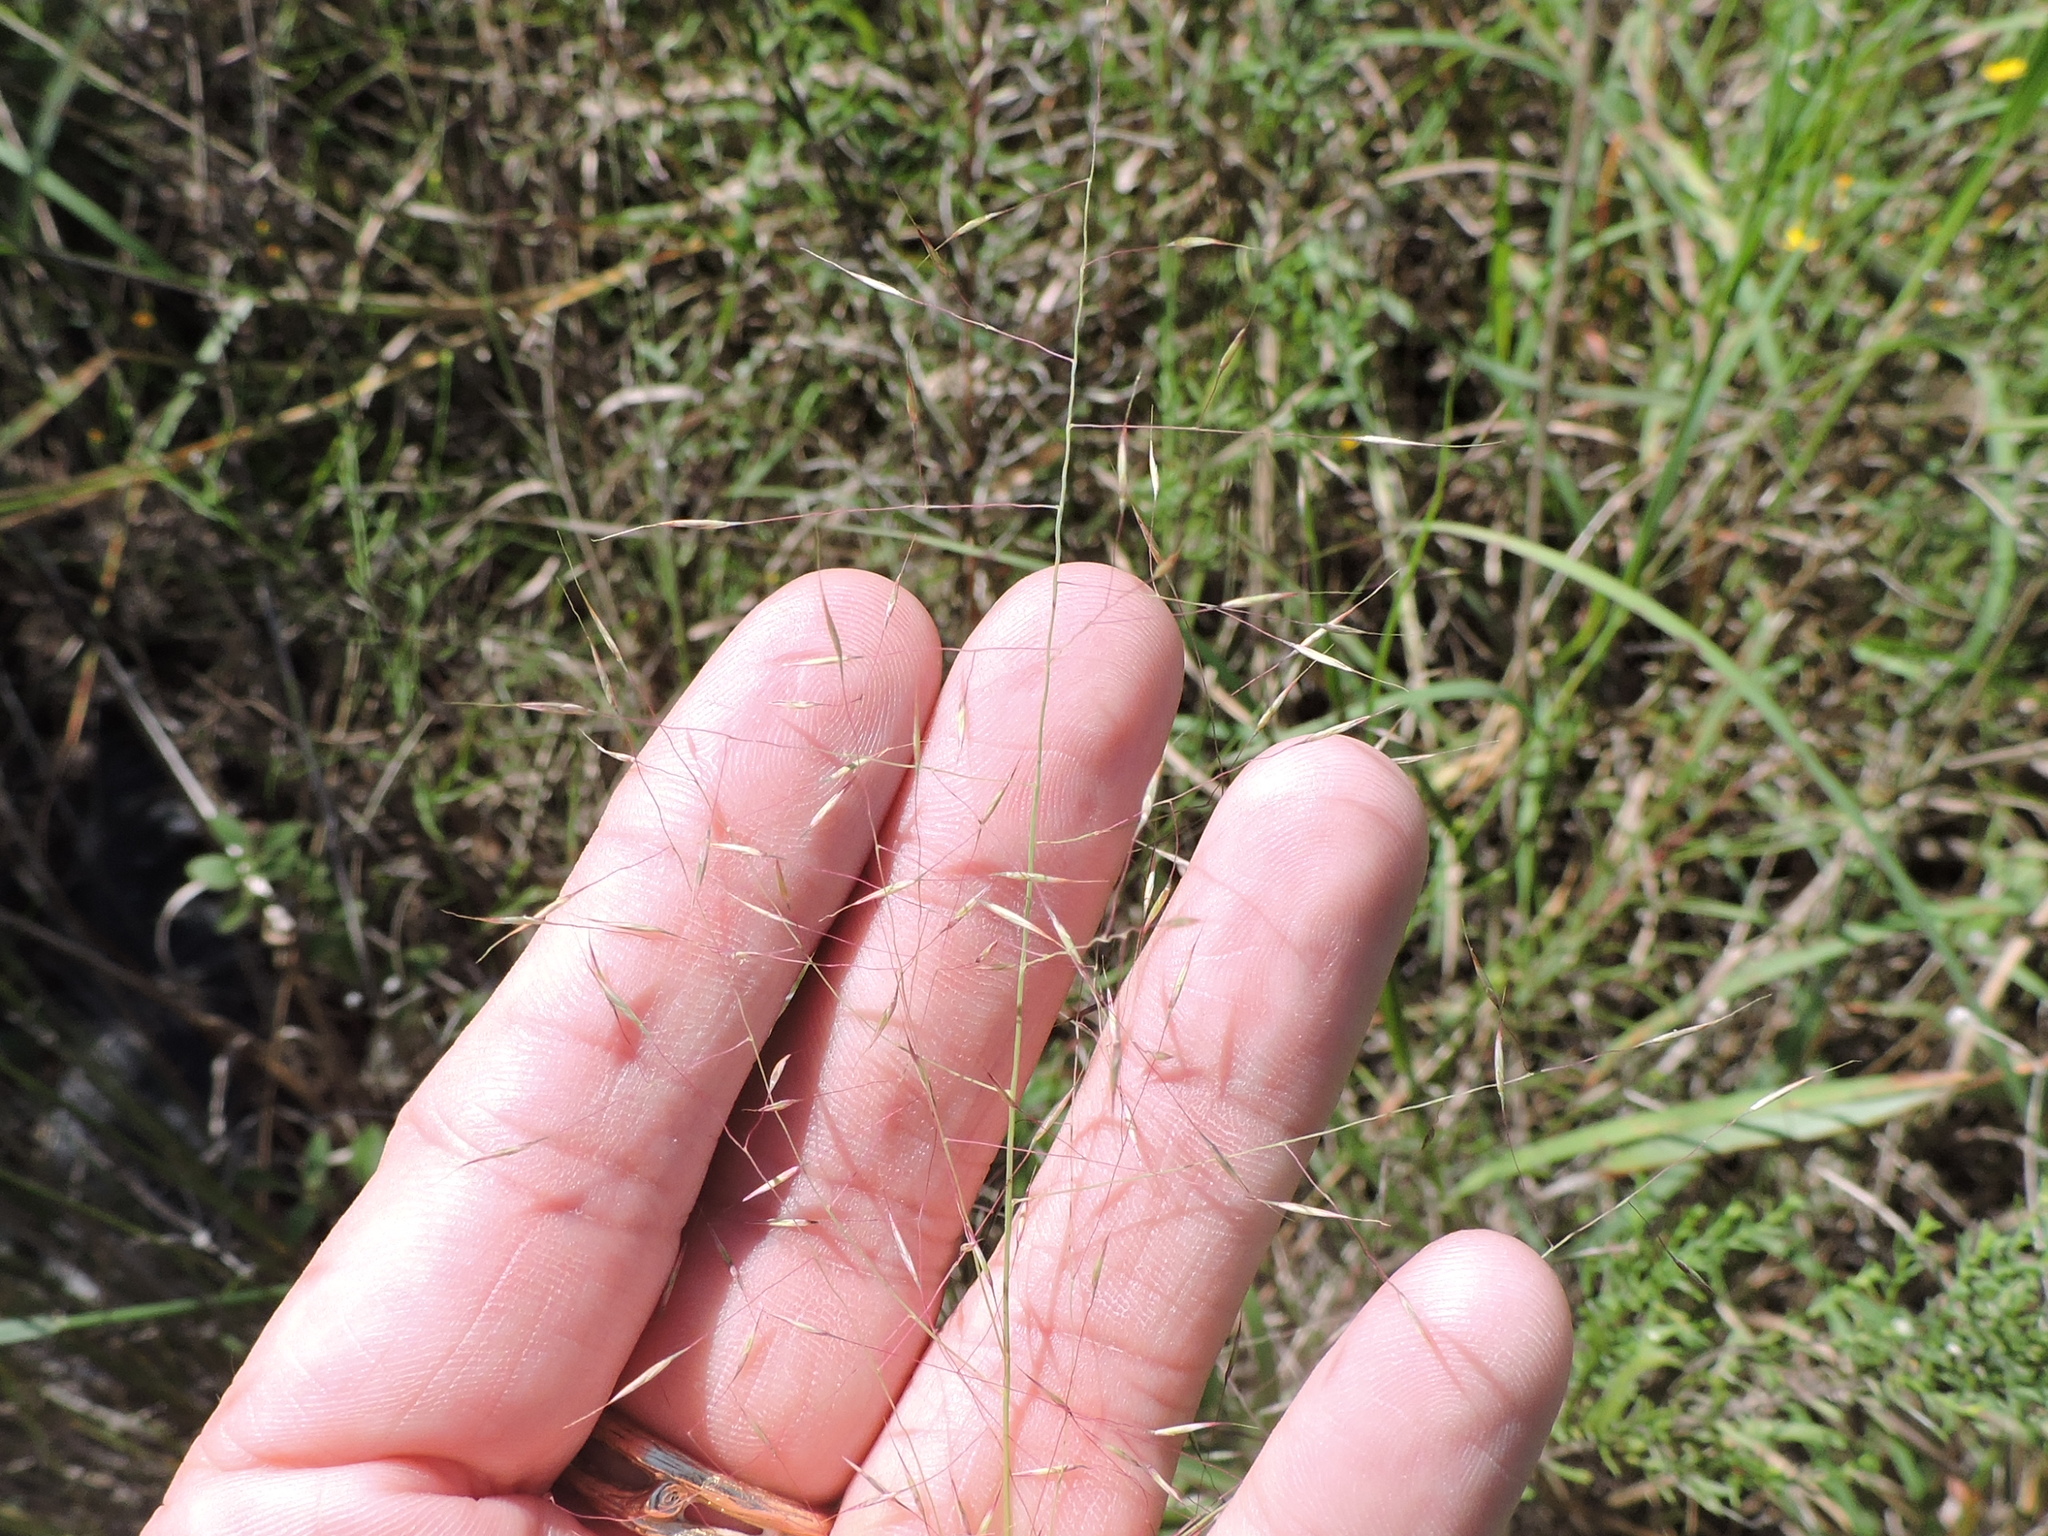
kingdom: Plantae
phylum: Tracheophyta
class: Liliopsida
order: Poales
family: Poaceae
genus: Muhlenbergia
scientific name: Muhlenbergia reverchonii
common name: Seep muhly
